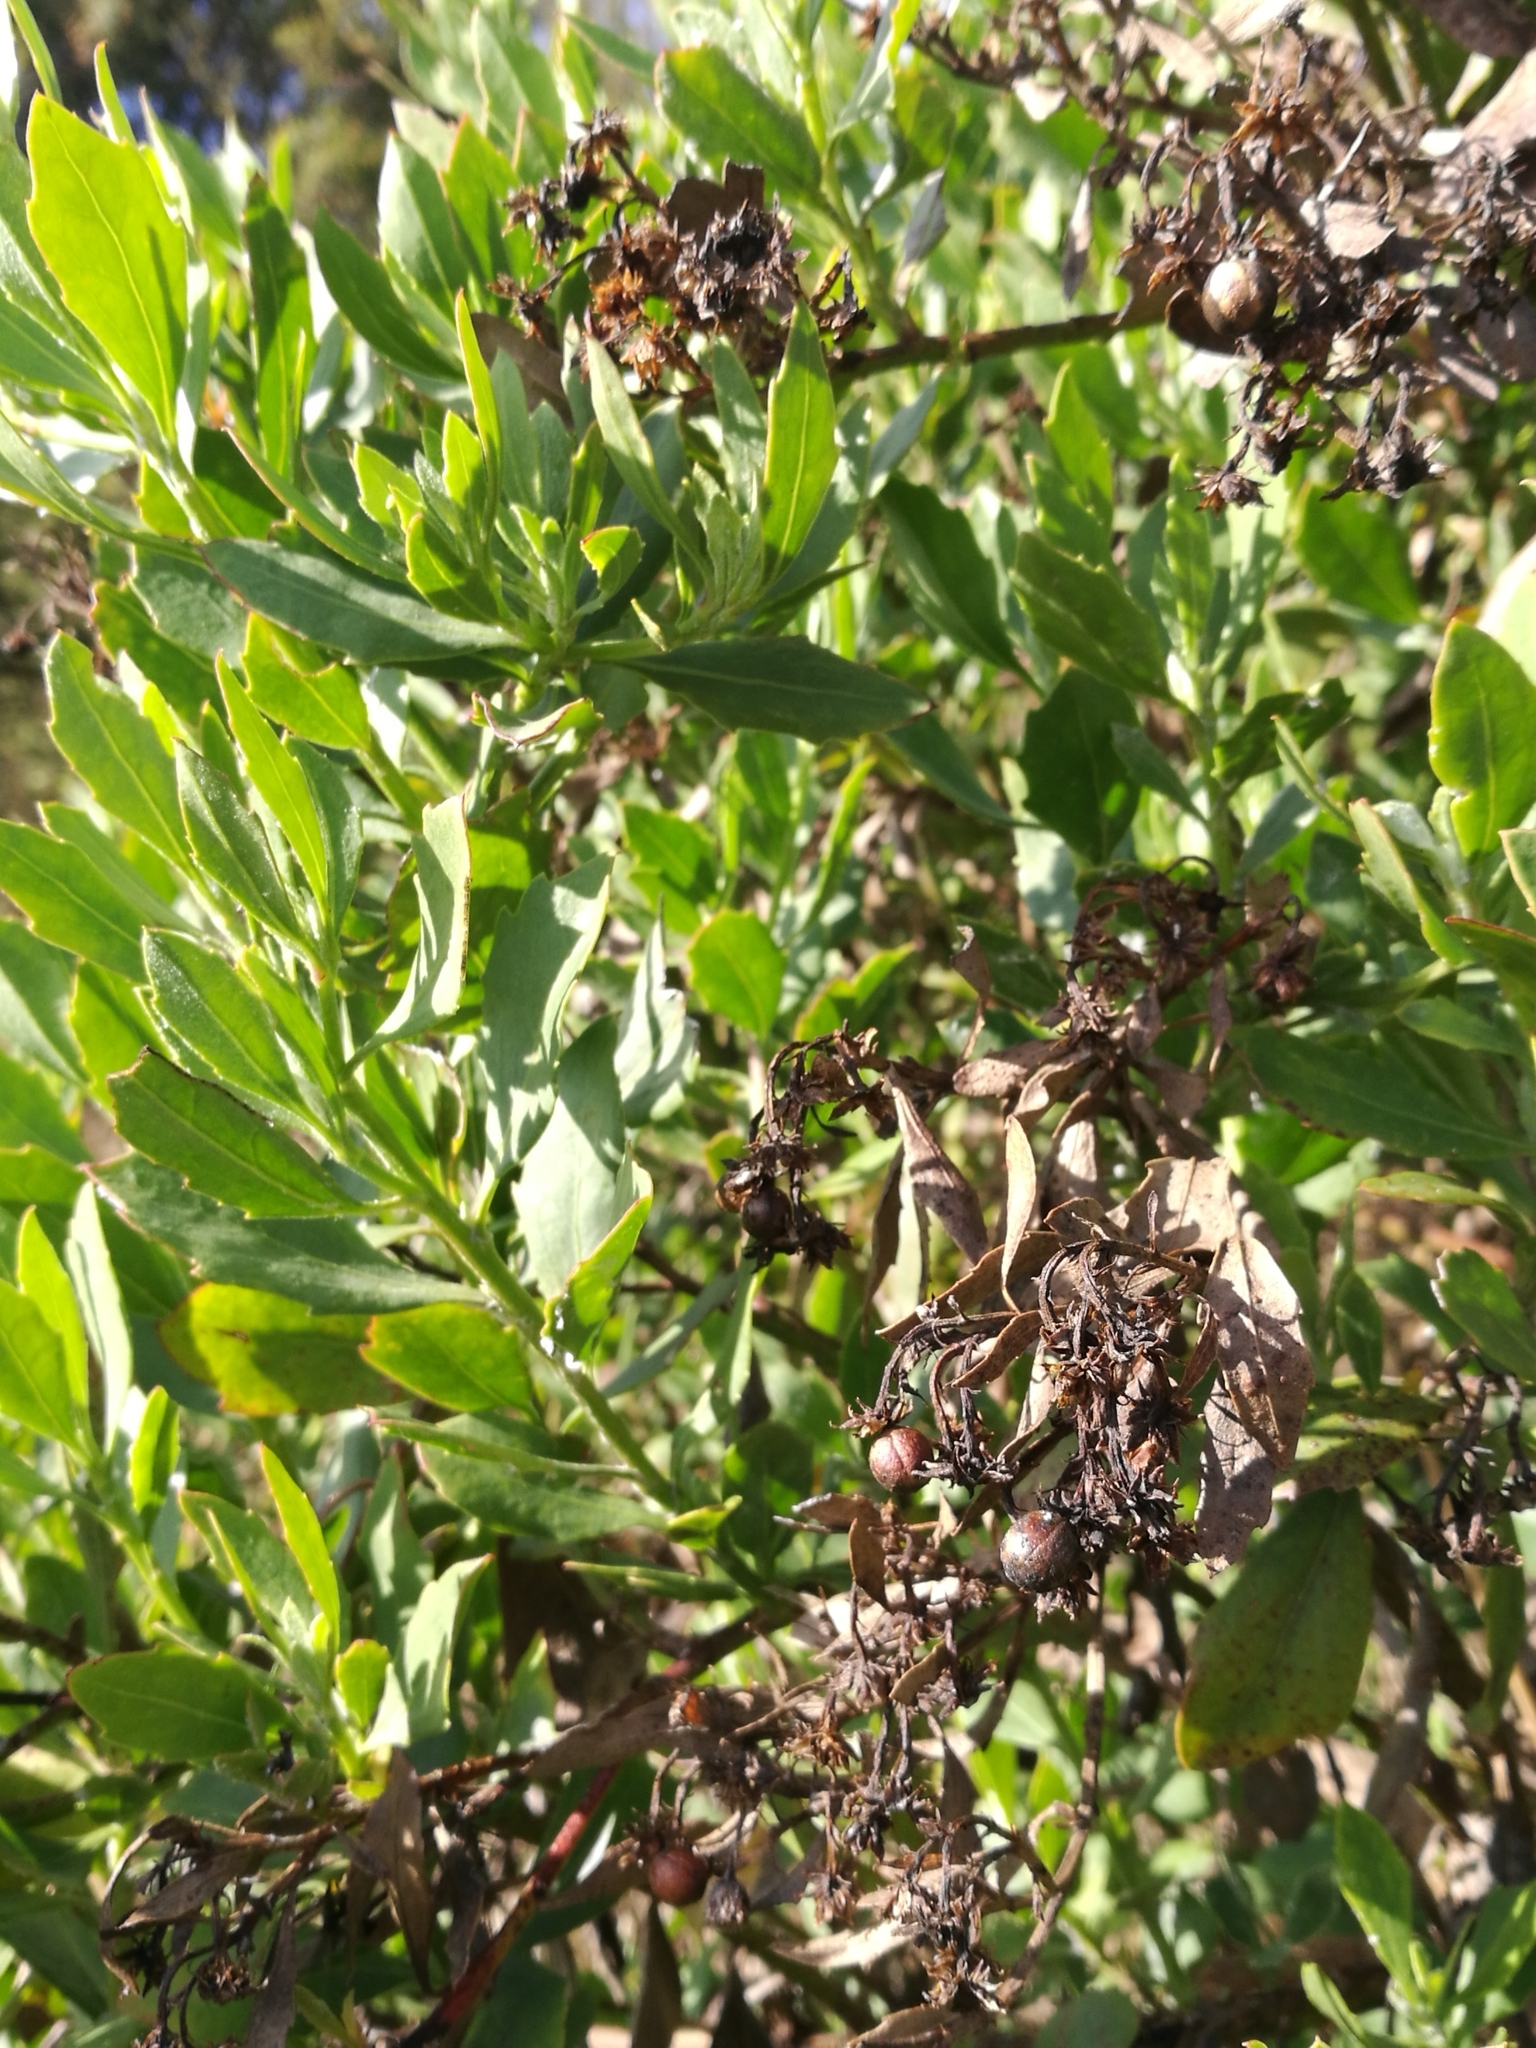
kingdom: Plantae
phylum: Tracheophyta
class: Magnoliopsida
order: Asterales
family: Asteraceae
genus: Osteospermum
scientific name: Osteospermum moniliferum
